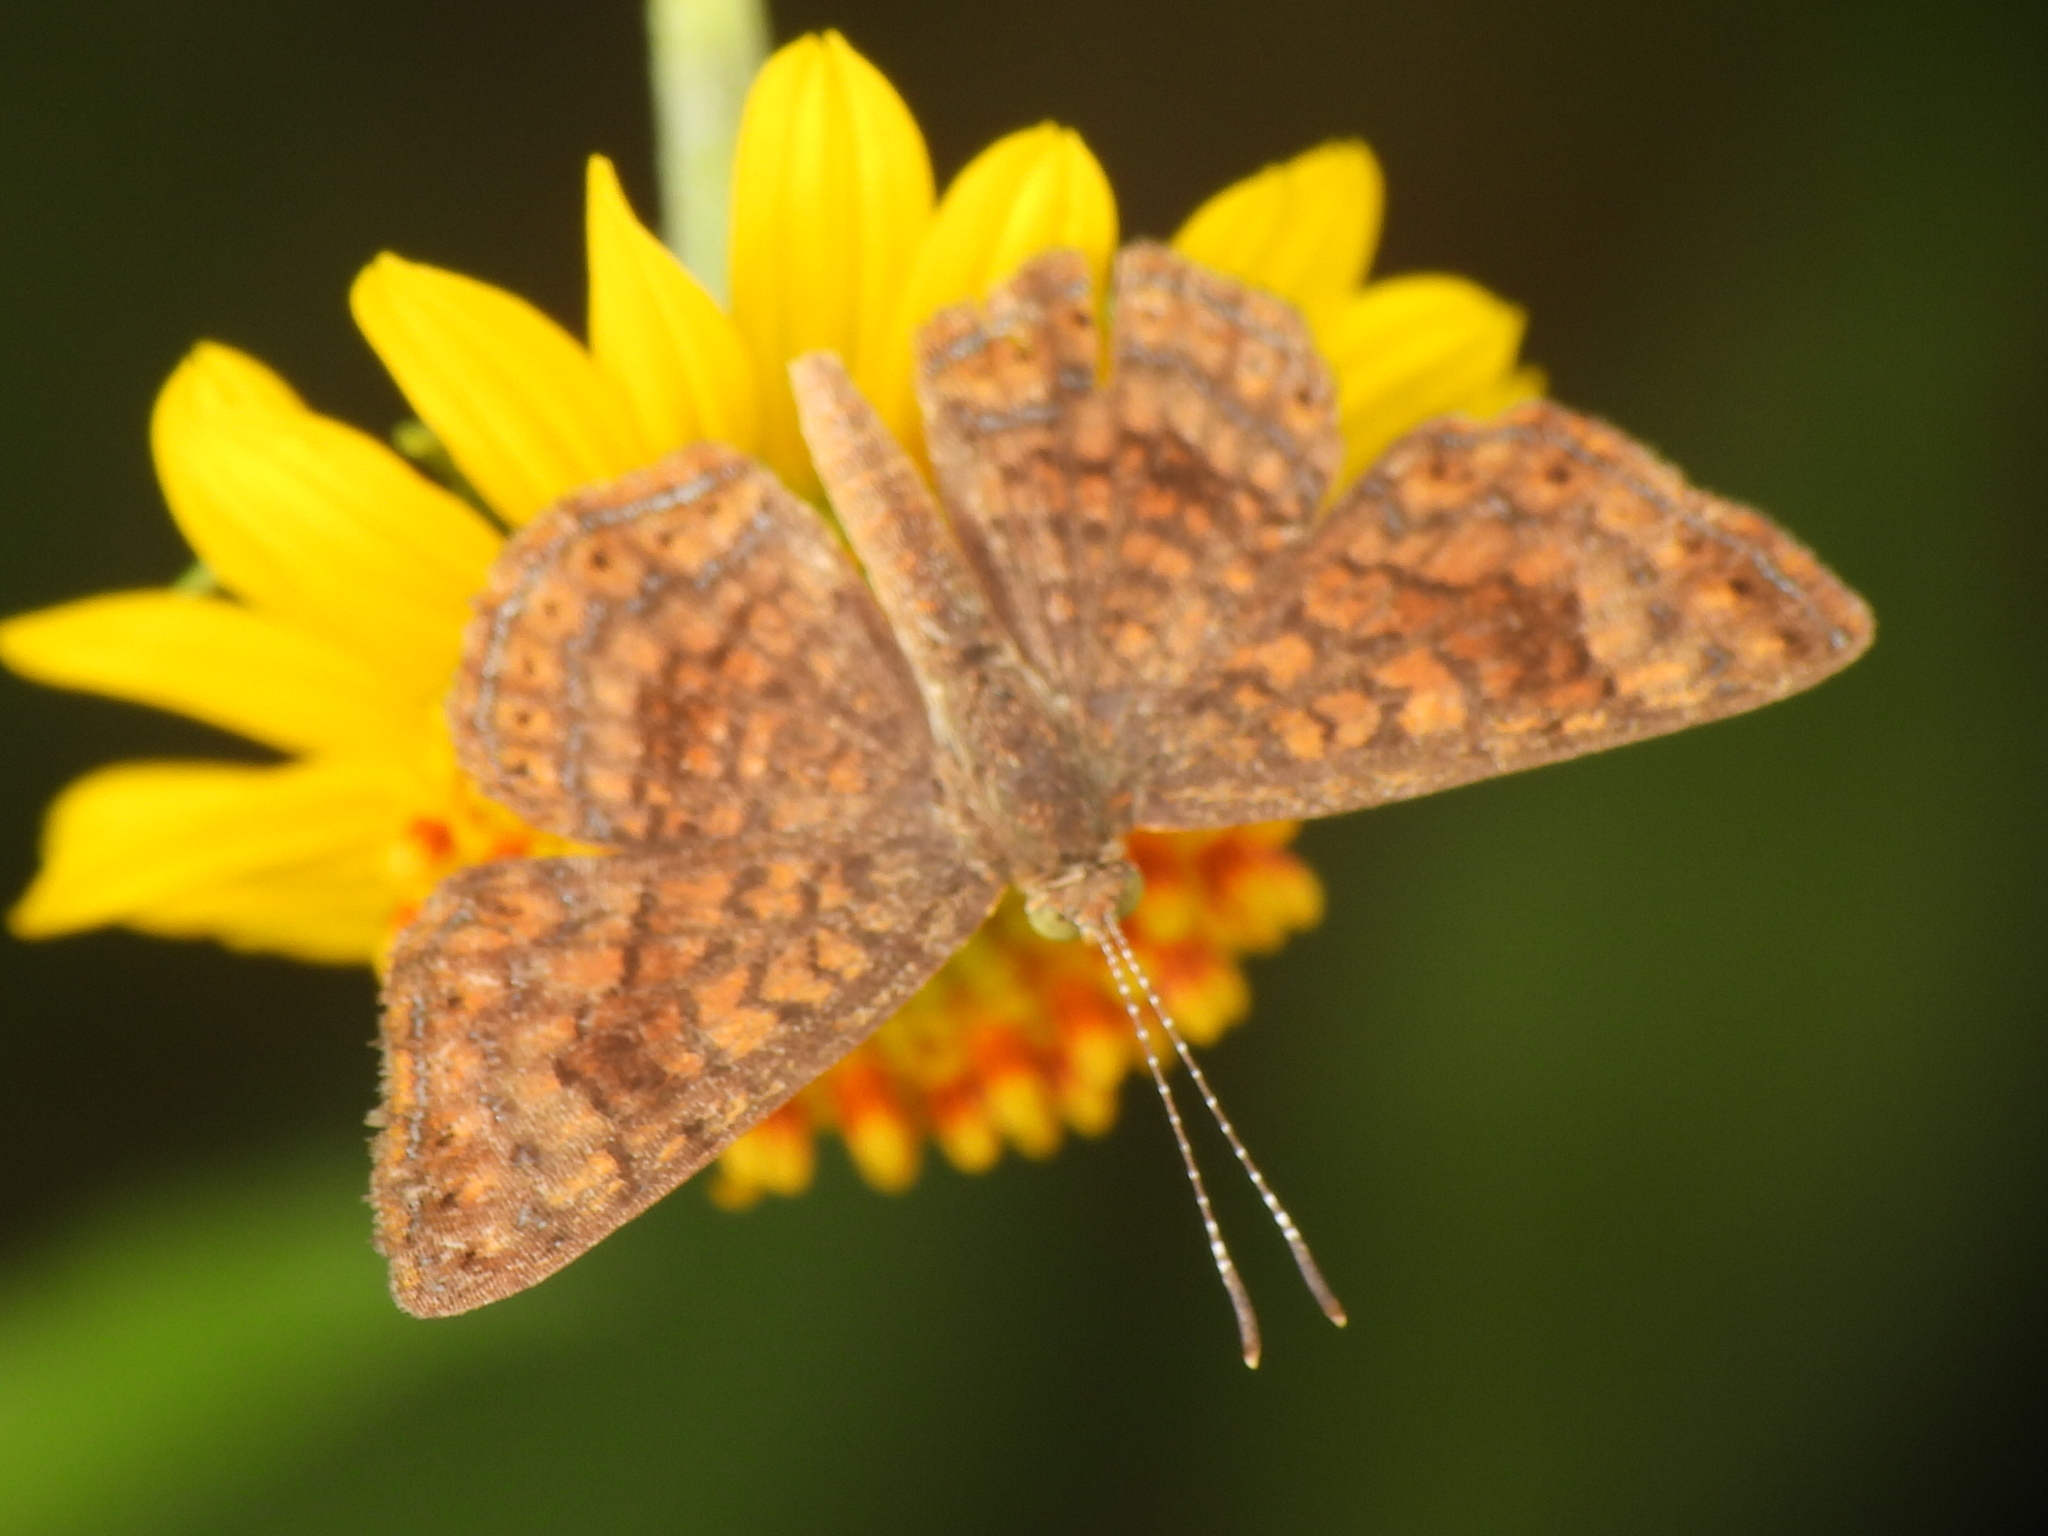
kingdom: Animalia
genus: Calephelis
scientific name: Calephelis nemesis
